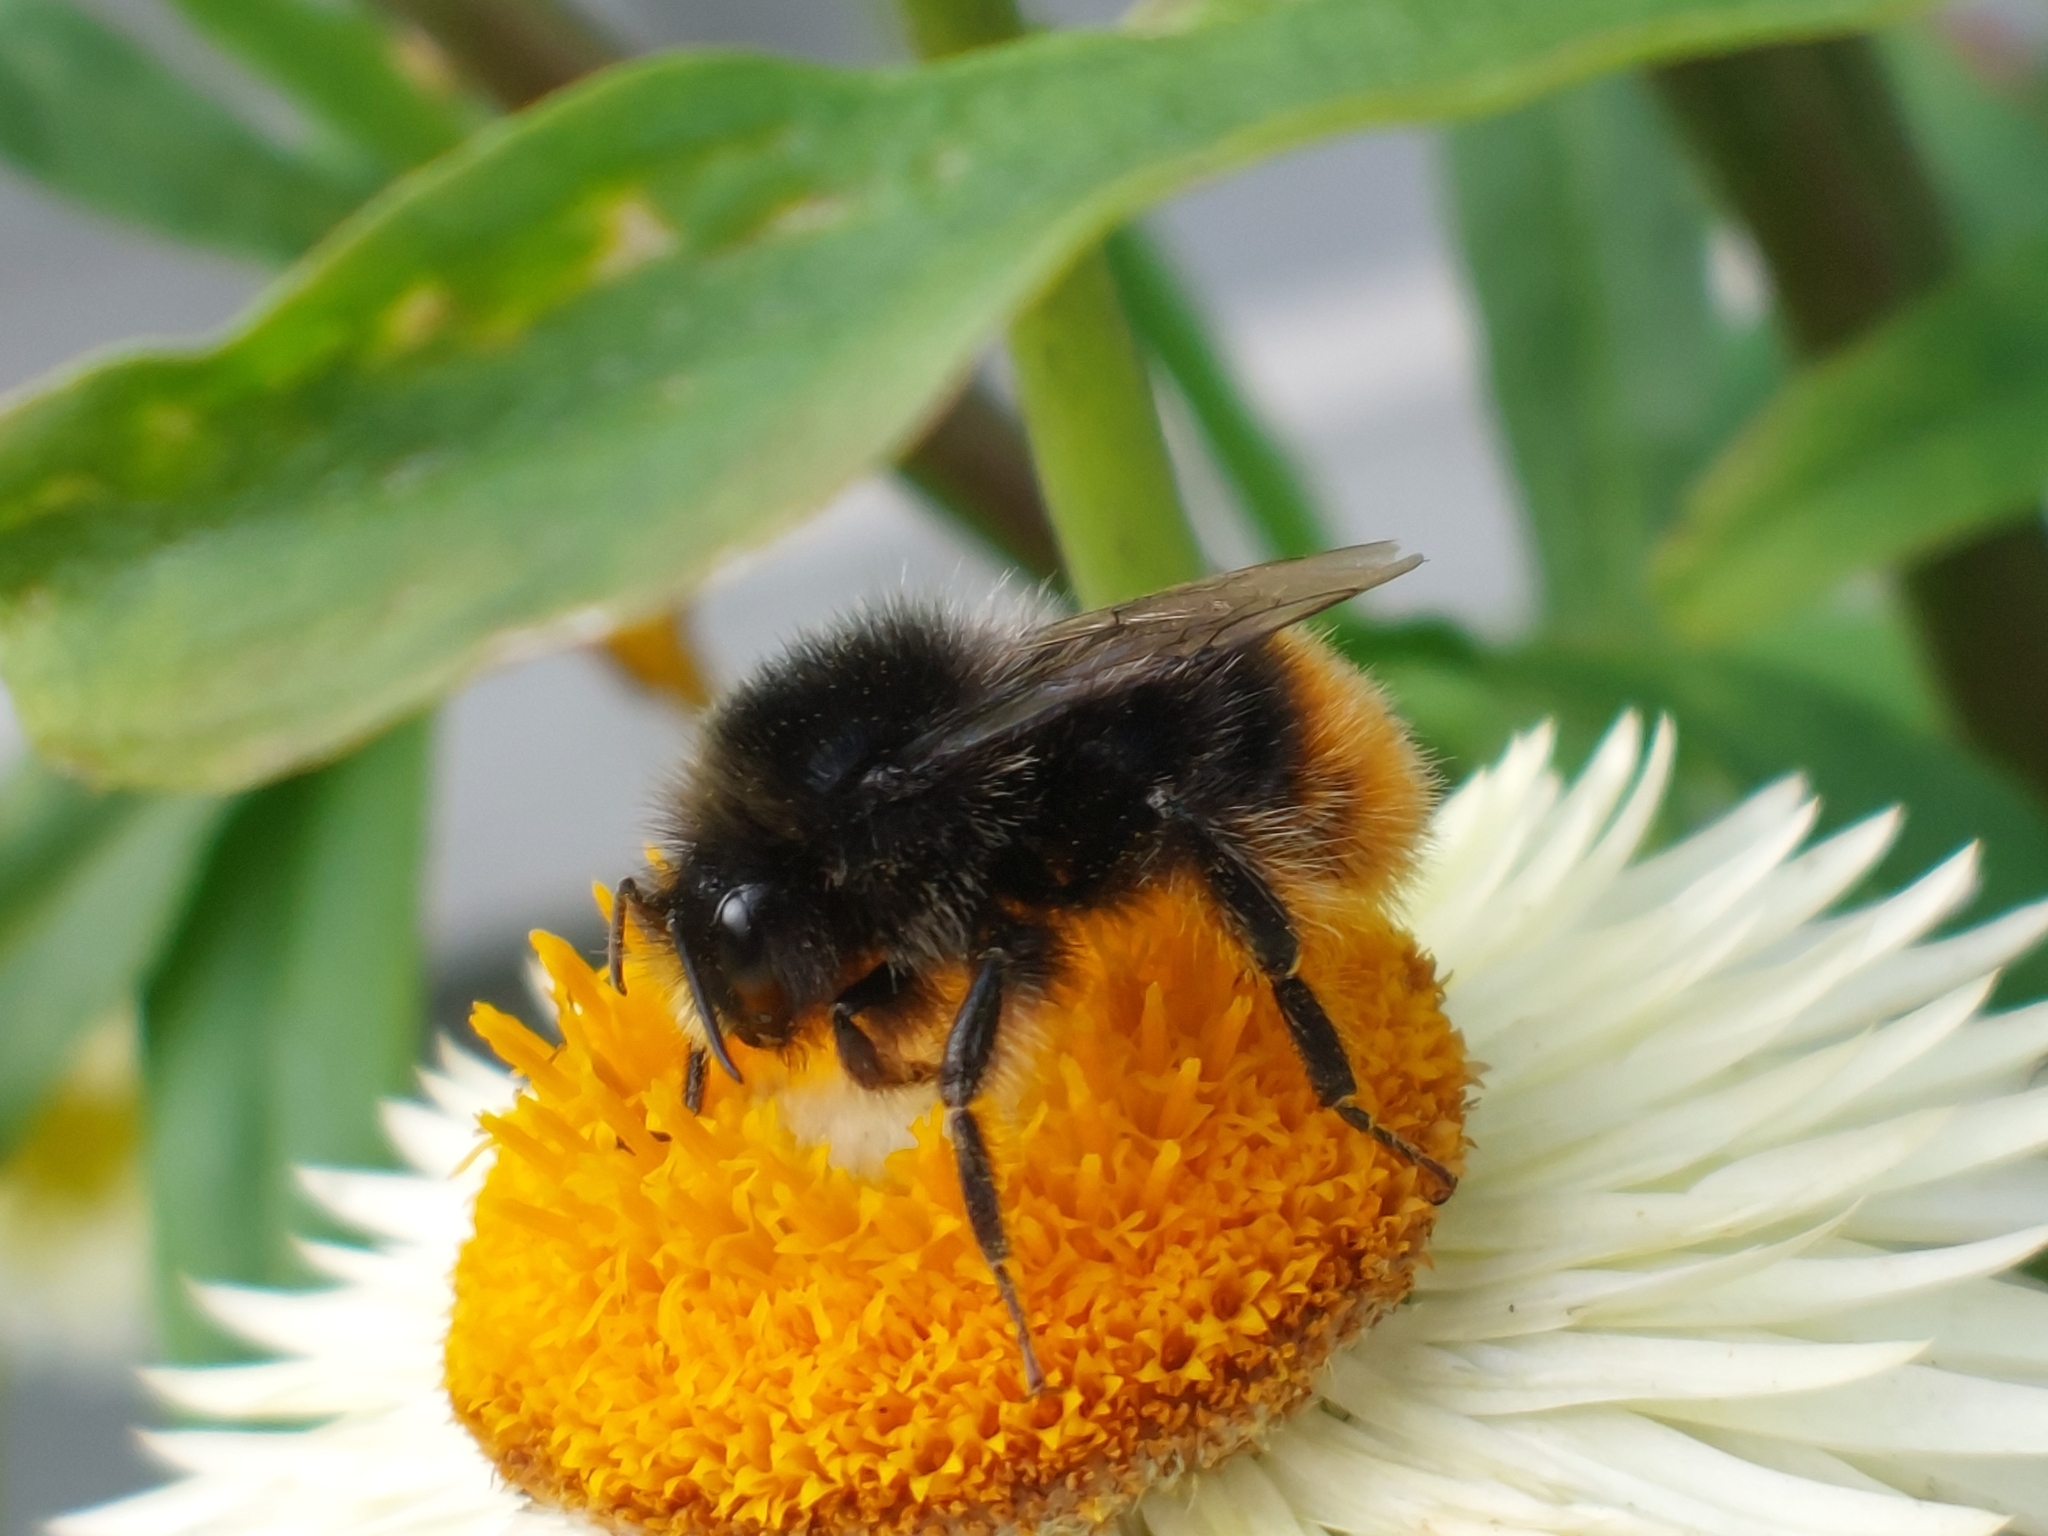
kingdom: Animalia
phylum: Arthropoda
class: Insecta
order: Hymenoptera
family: Apidae
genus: Bombus
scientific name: Bombus lapidarius
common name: Large red-tailed humble-bee
